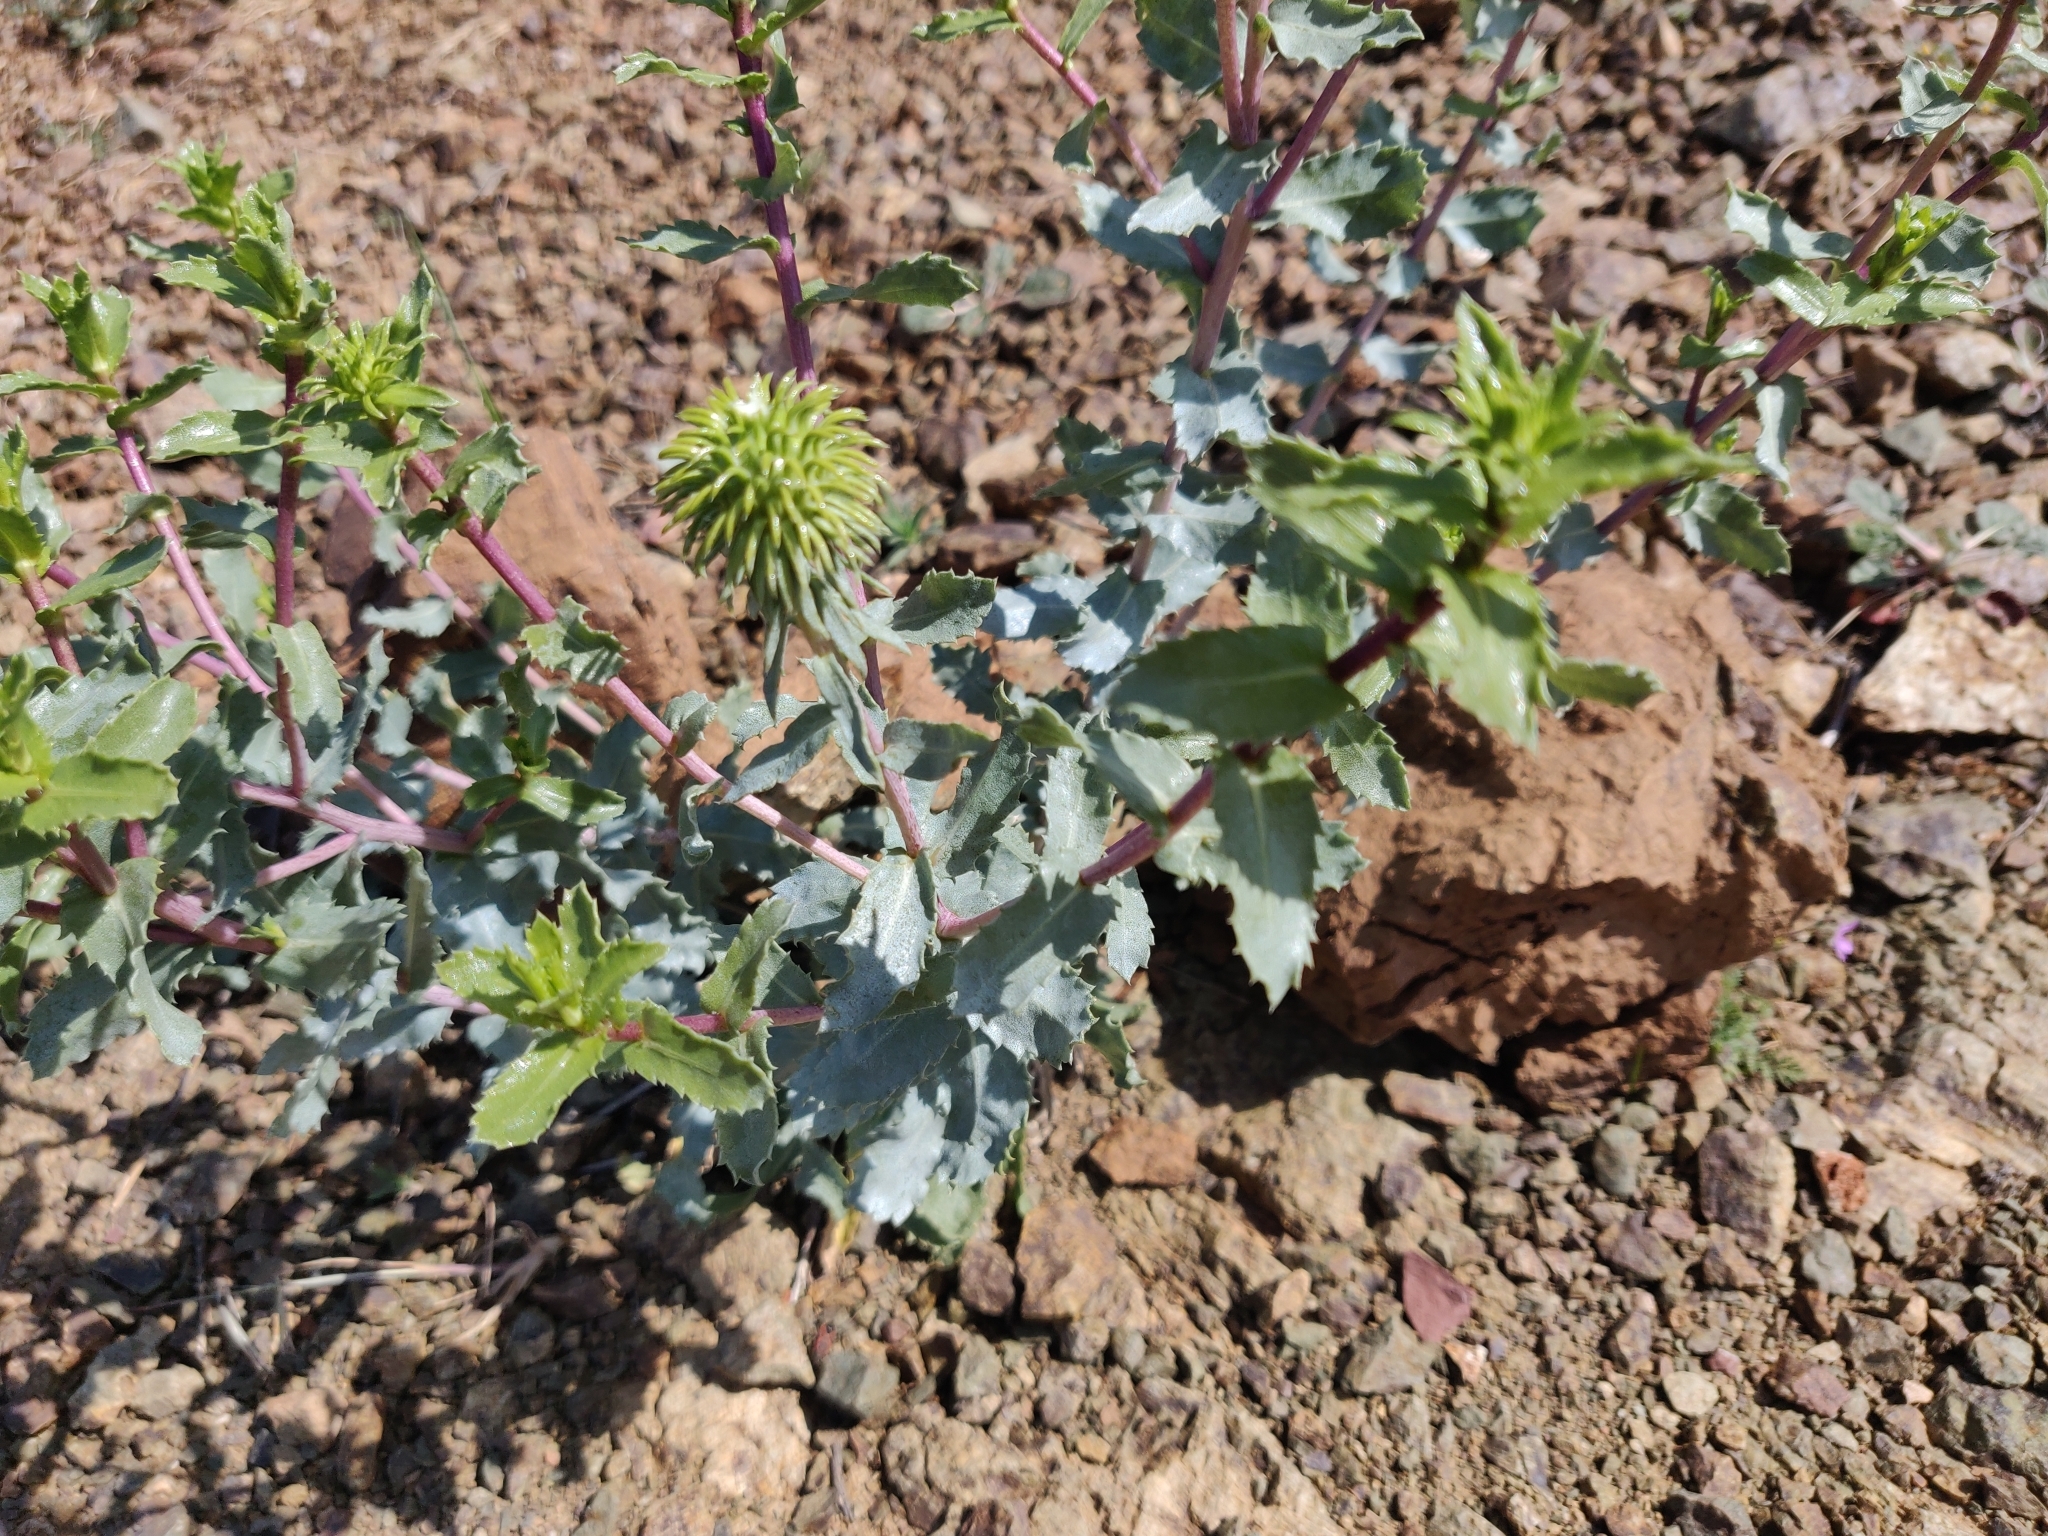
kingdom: Plantae
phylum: Tracheophyta
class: Magnoliopsida
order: Asterales
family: Asteraceae
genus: Grindelia
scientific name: Grindelia hirsutula
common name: Hairy gumweed
